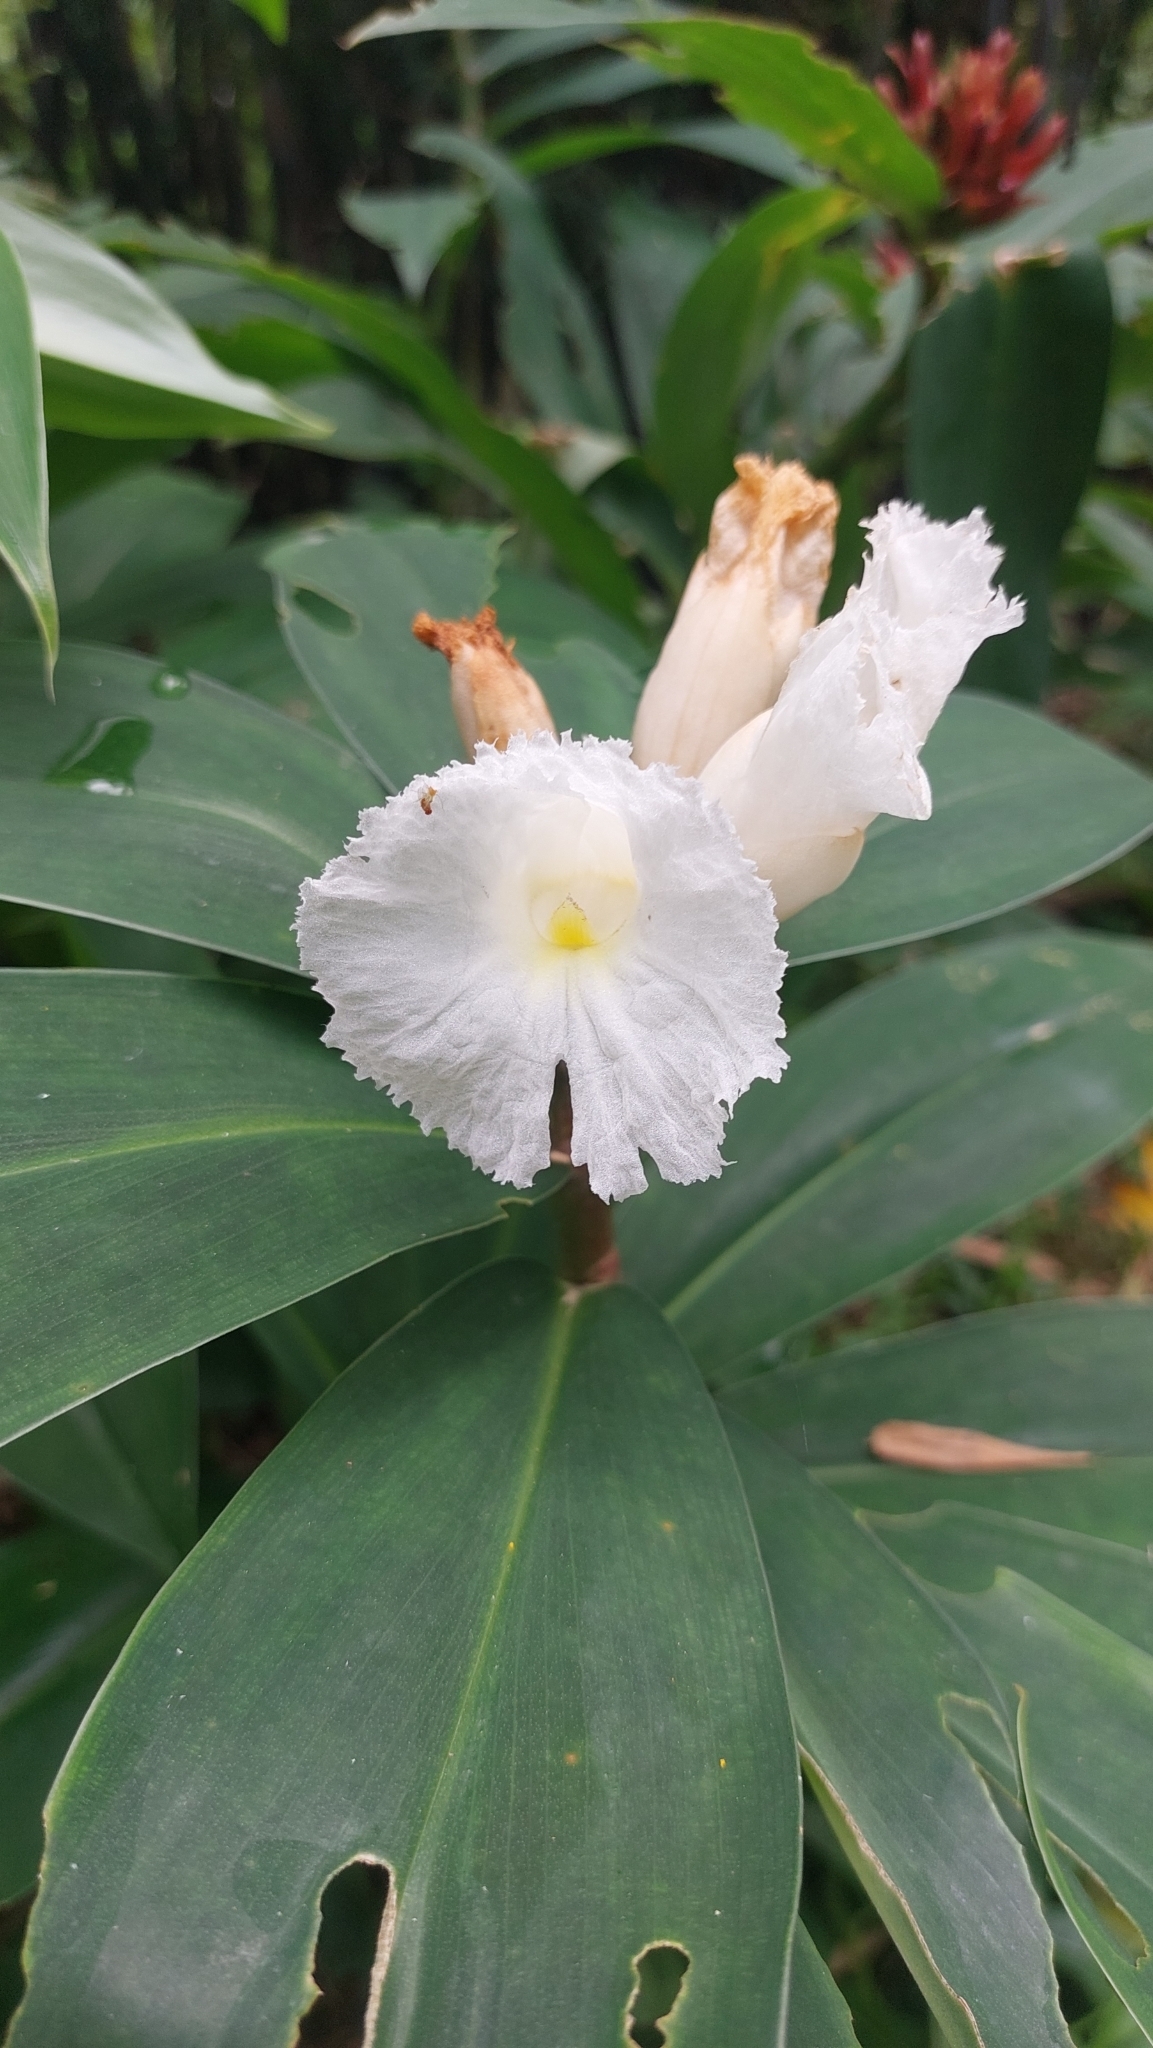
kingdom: Plantae
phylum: Tracheophyta
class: Liliopsida
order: Zingiberales
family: Costaceae
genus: Hellenia
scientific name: Hellenia speciosa
